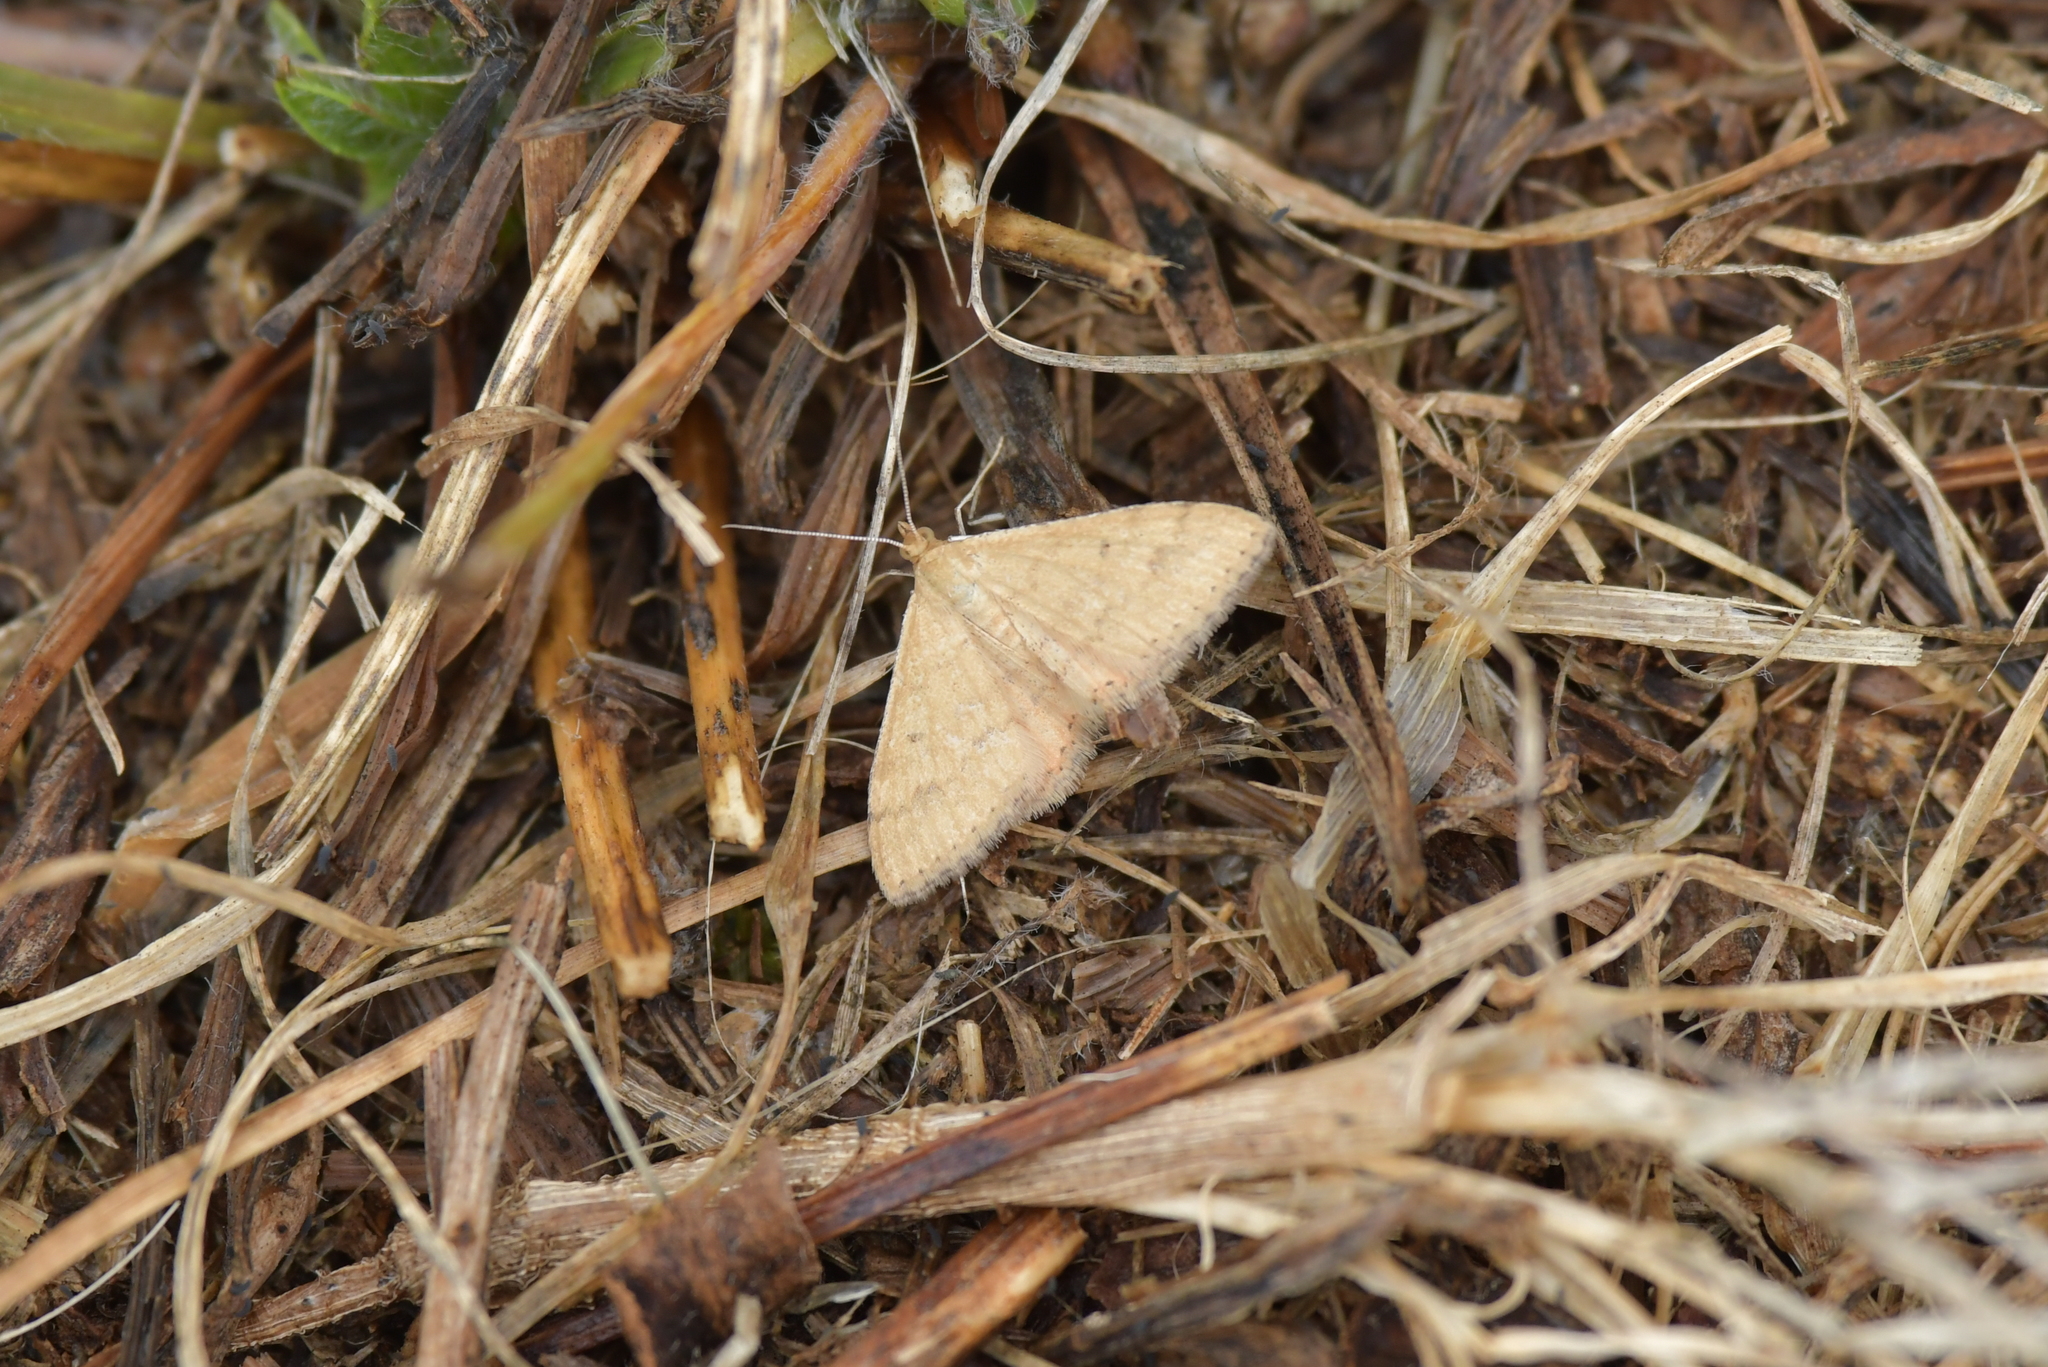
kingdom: Animalia
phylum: Arthropoda
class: Insecta
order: Lepidoptera
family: Geometridae
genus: Scopula
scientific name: Scopula rubraria
